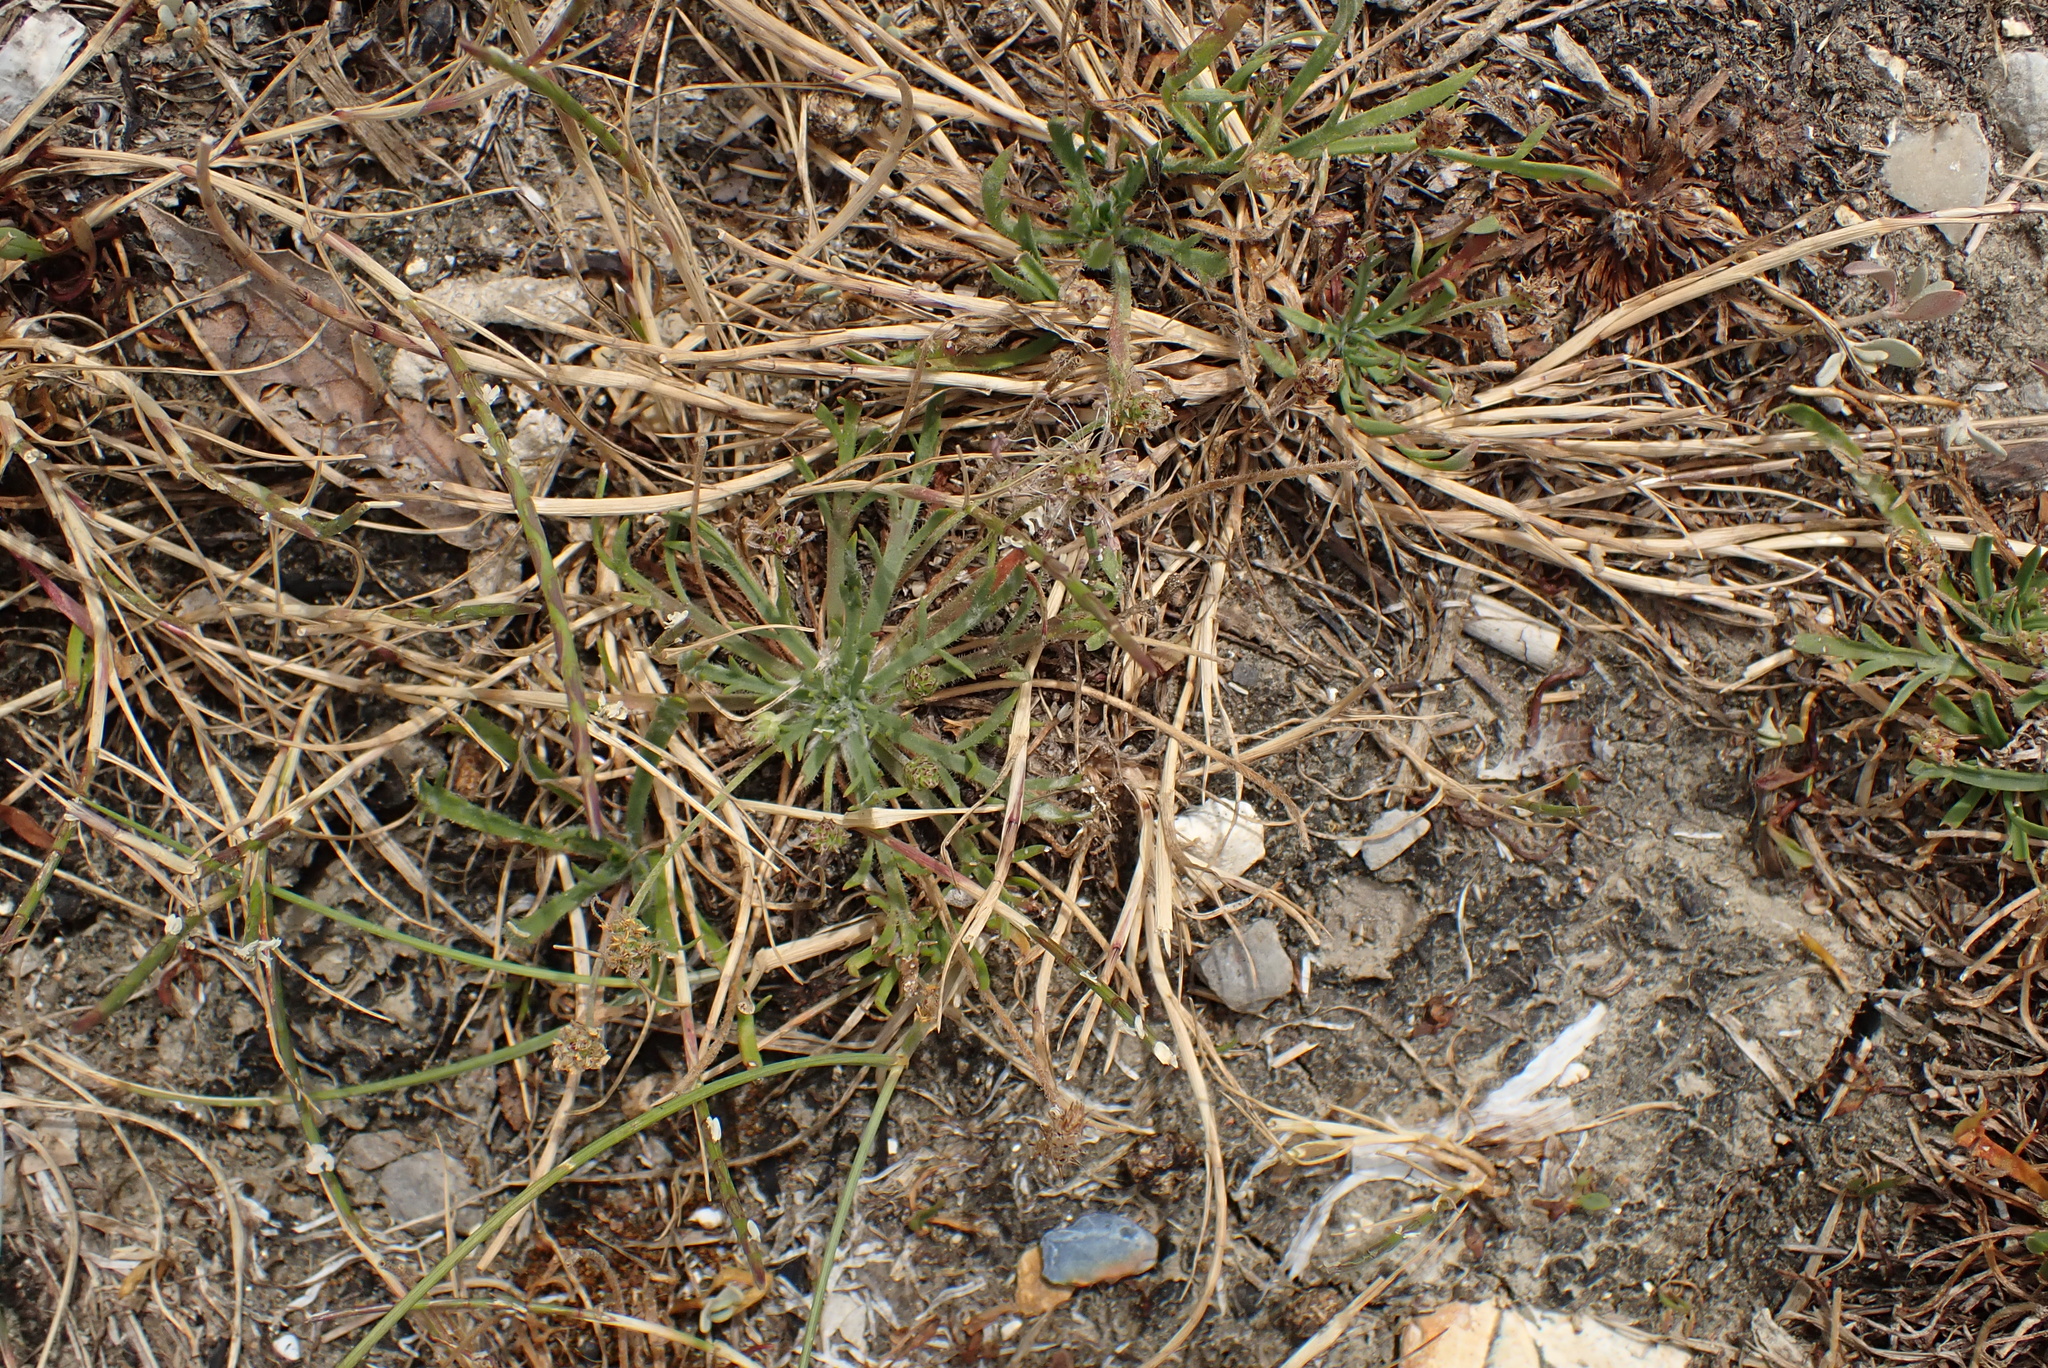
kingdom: Plantae
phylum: Tracheophyta
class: Magnoliopsida
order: Lamiales
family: Plantaginaceae
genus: Plantago
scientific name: Plantago coronopus
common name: Buck's-horn plantain
